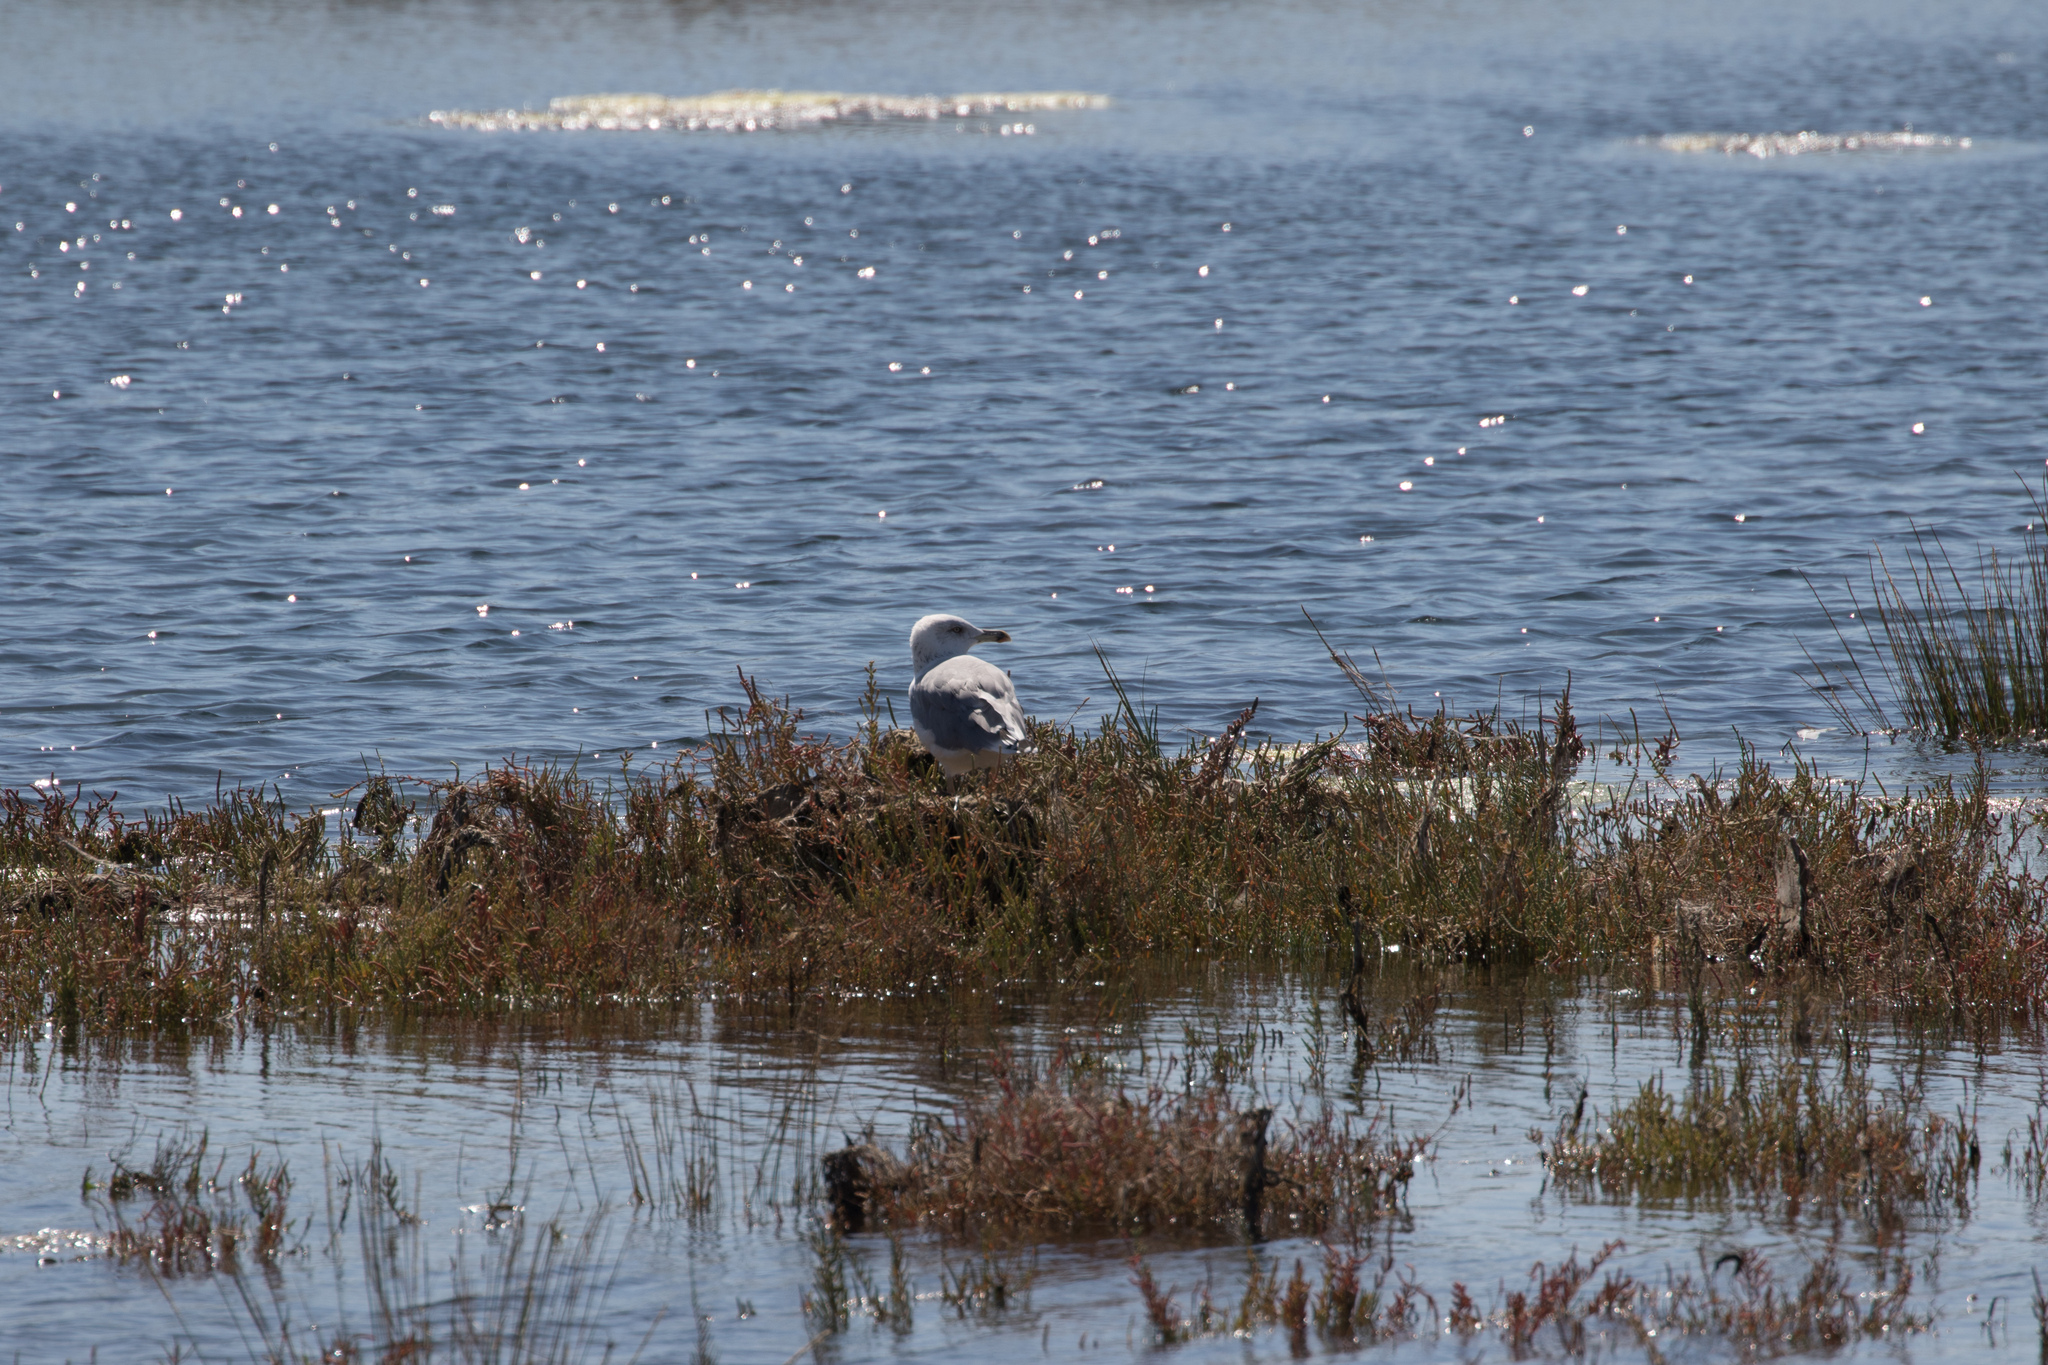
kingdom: Animalia
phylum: Chordata
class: Aves
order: Charadriiformes
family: Laridae
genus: Larus
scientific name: Larus michahellis
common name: Yellow-legged gull
